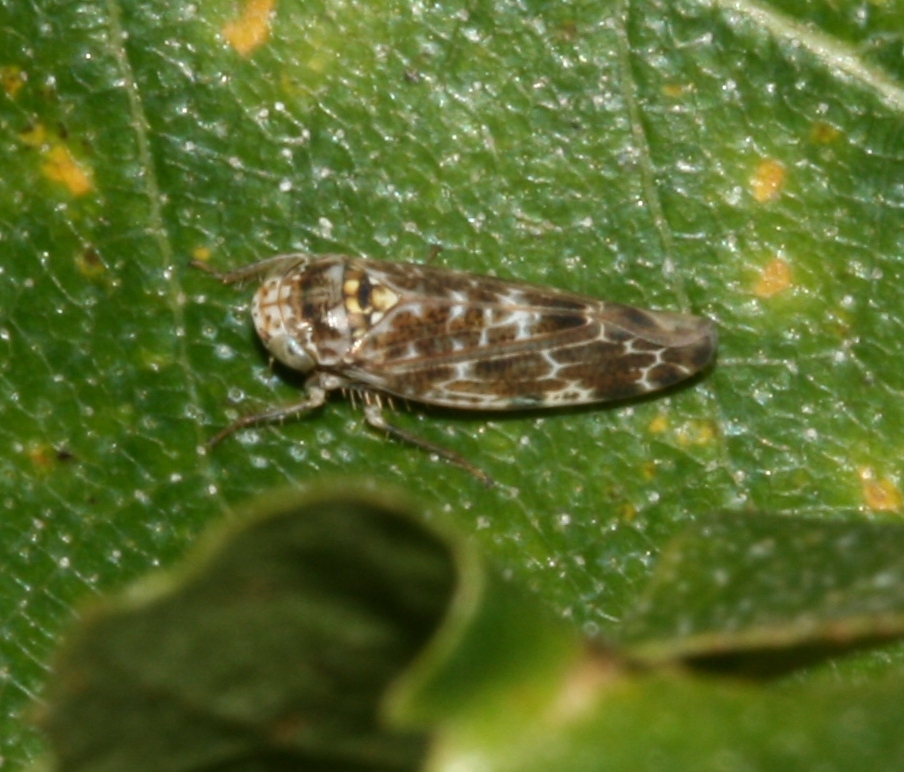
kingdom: Animalia
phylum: Arthropoda
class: Insecta
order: Hemiptera
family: Cicadellidae
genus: Allygus
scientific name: Allygus mixtus
